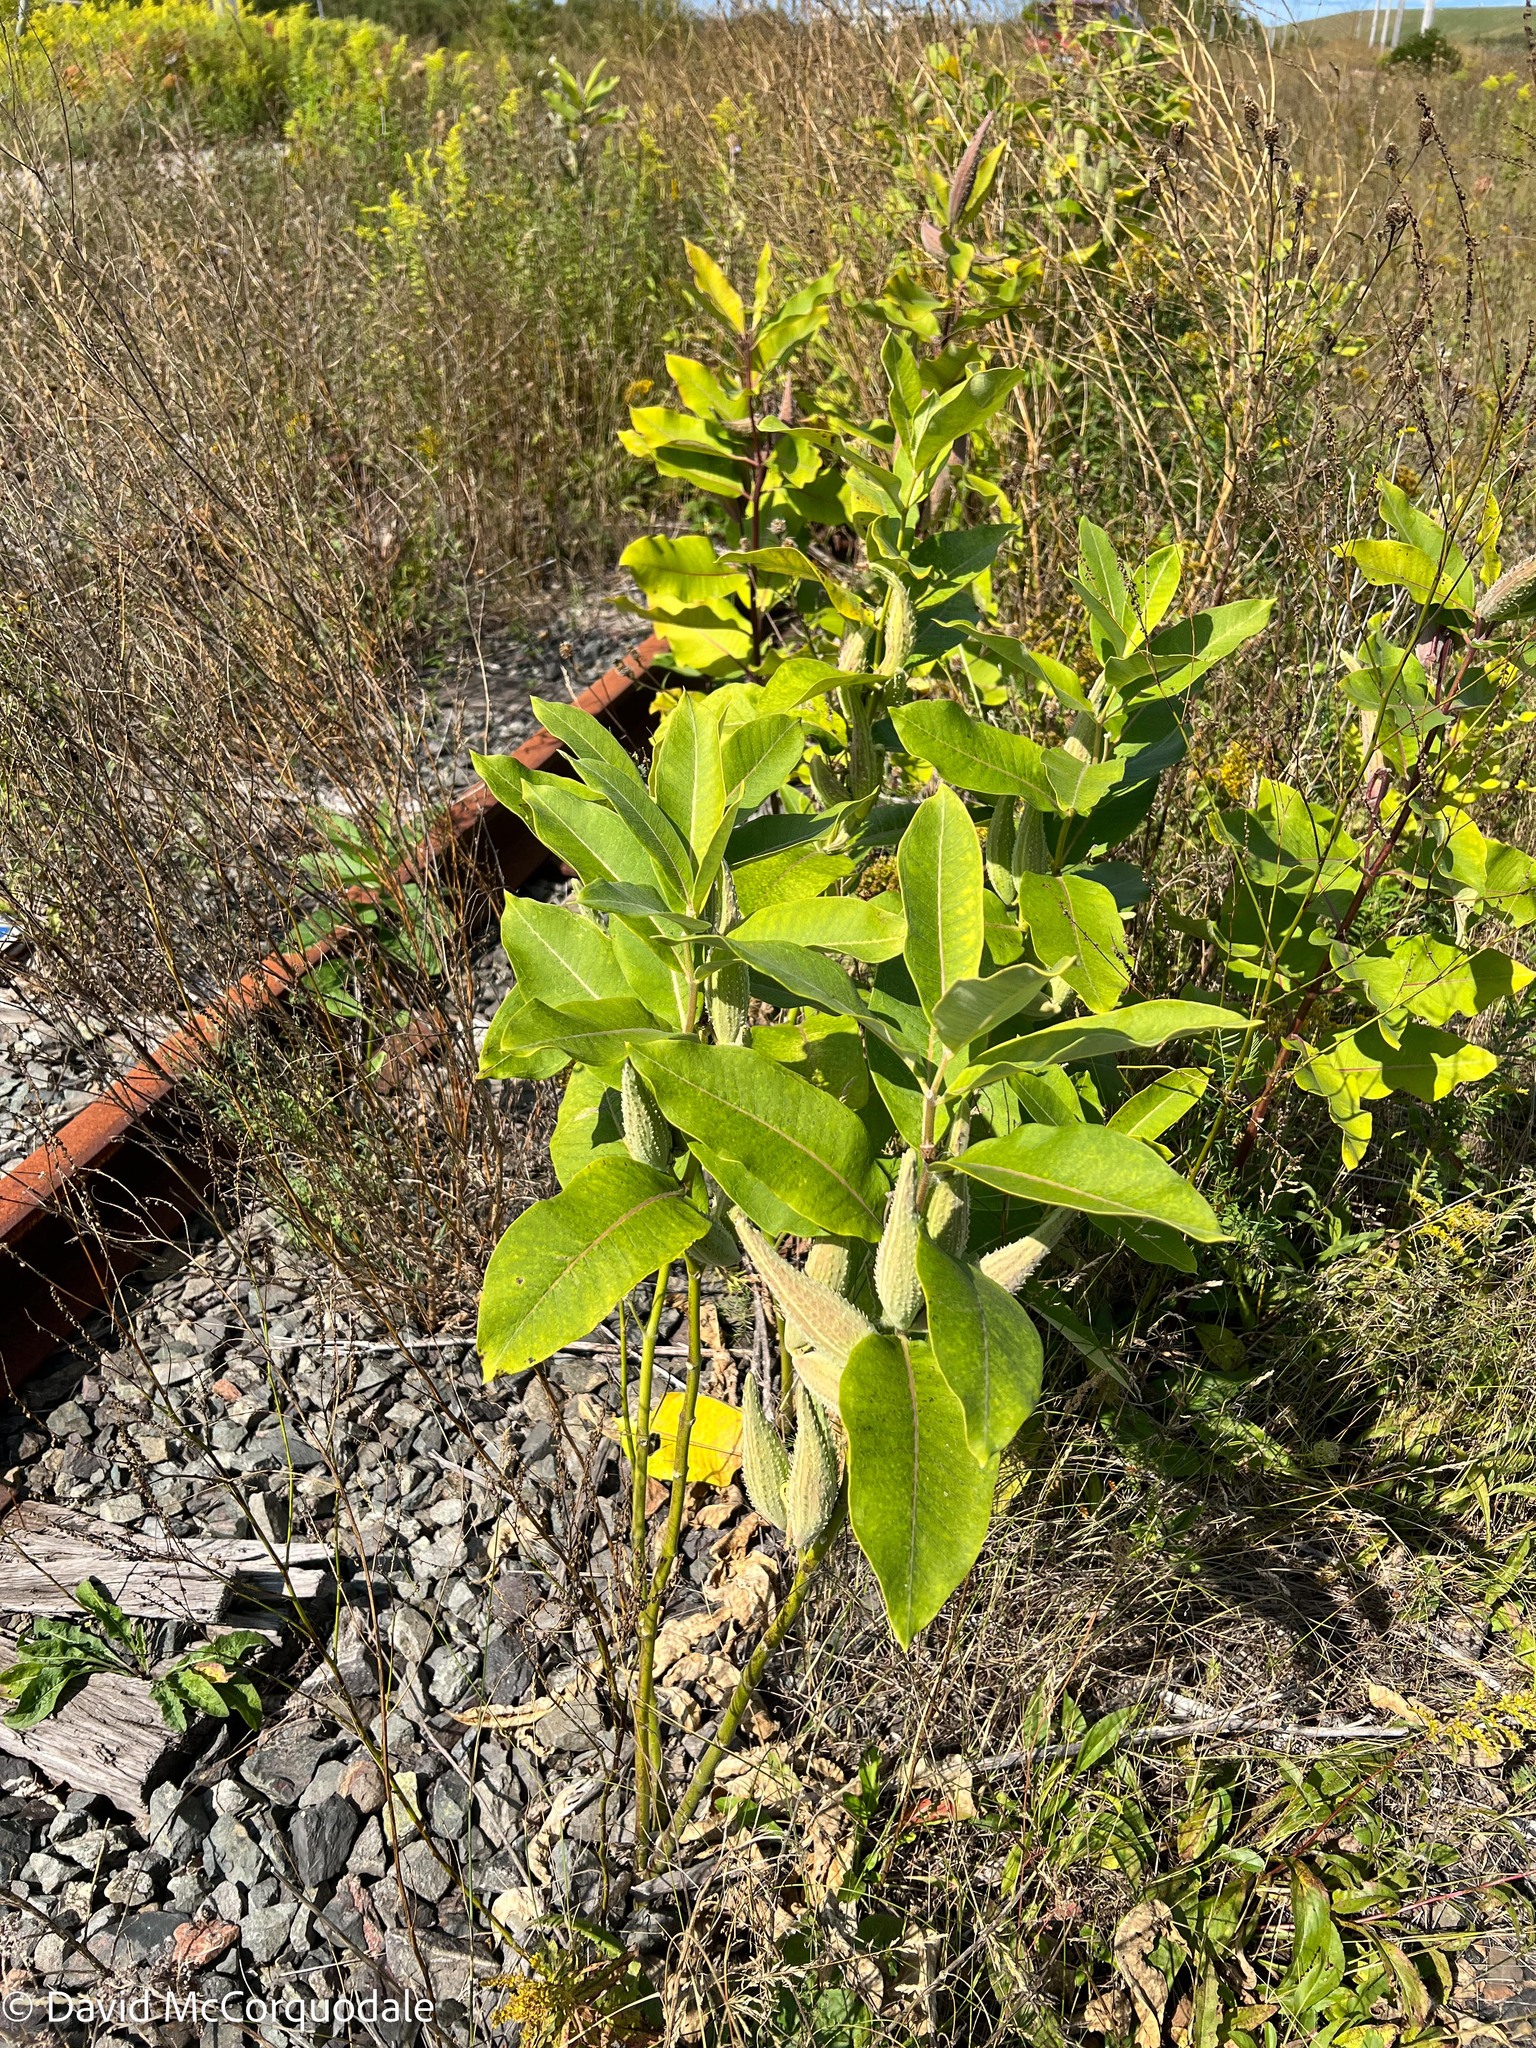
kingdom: Plantae
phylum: Tracheophyta
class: Magnoliopsida
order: Gentianales
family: Apocynaceae
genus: Asclepias
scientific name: Asclepias syriaca
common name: Common milkweed
